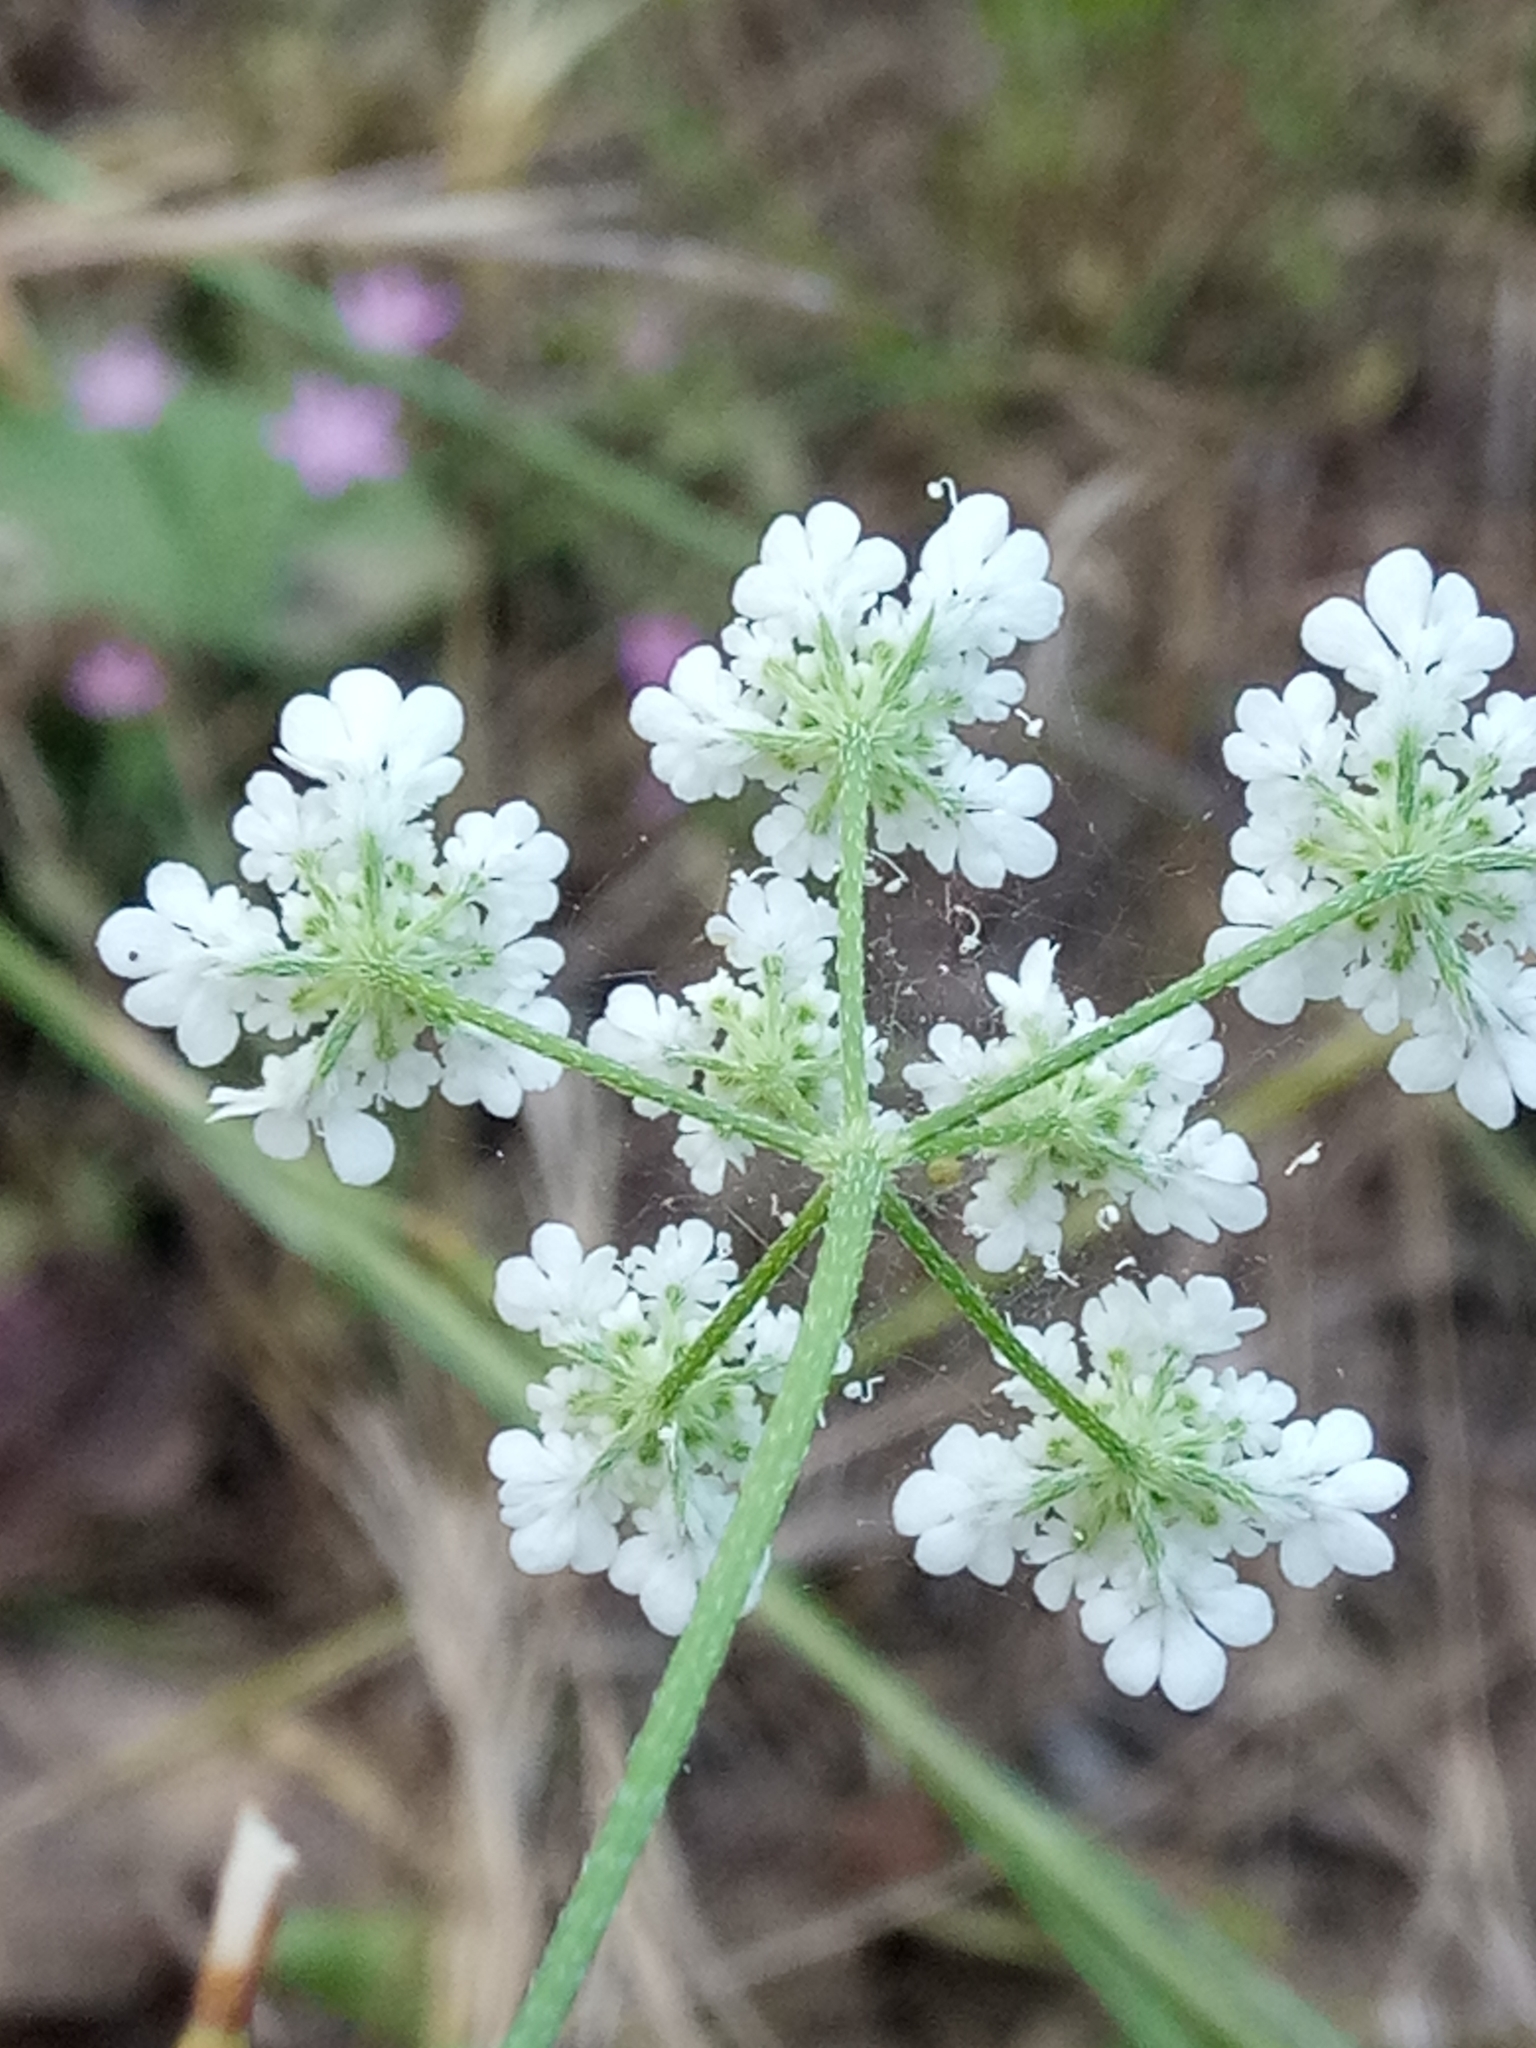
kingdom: Plantae
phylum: Tracheophyta
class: Magnoliopsida
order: Apiales
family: Apiaceae
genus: Torilis
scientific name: Torilis arvensis
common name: Spreading hedge-parsley
